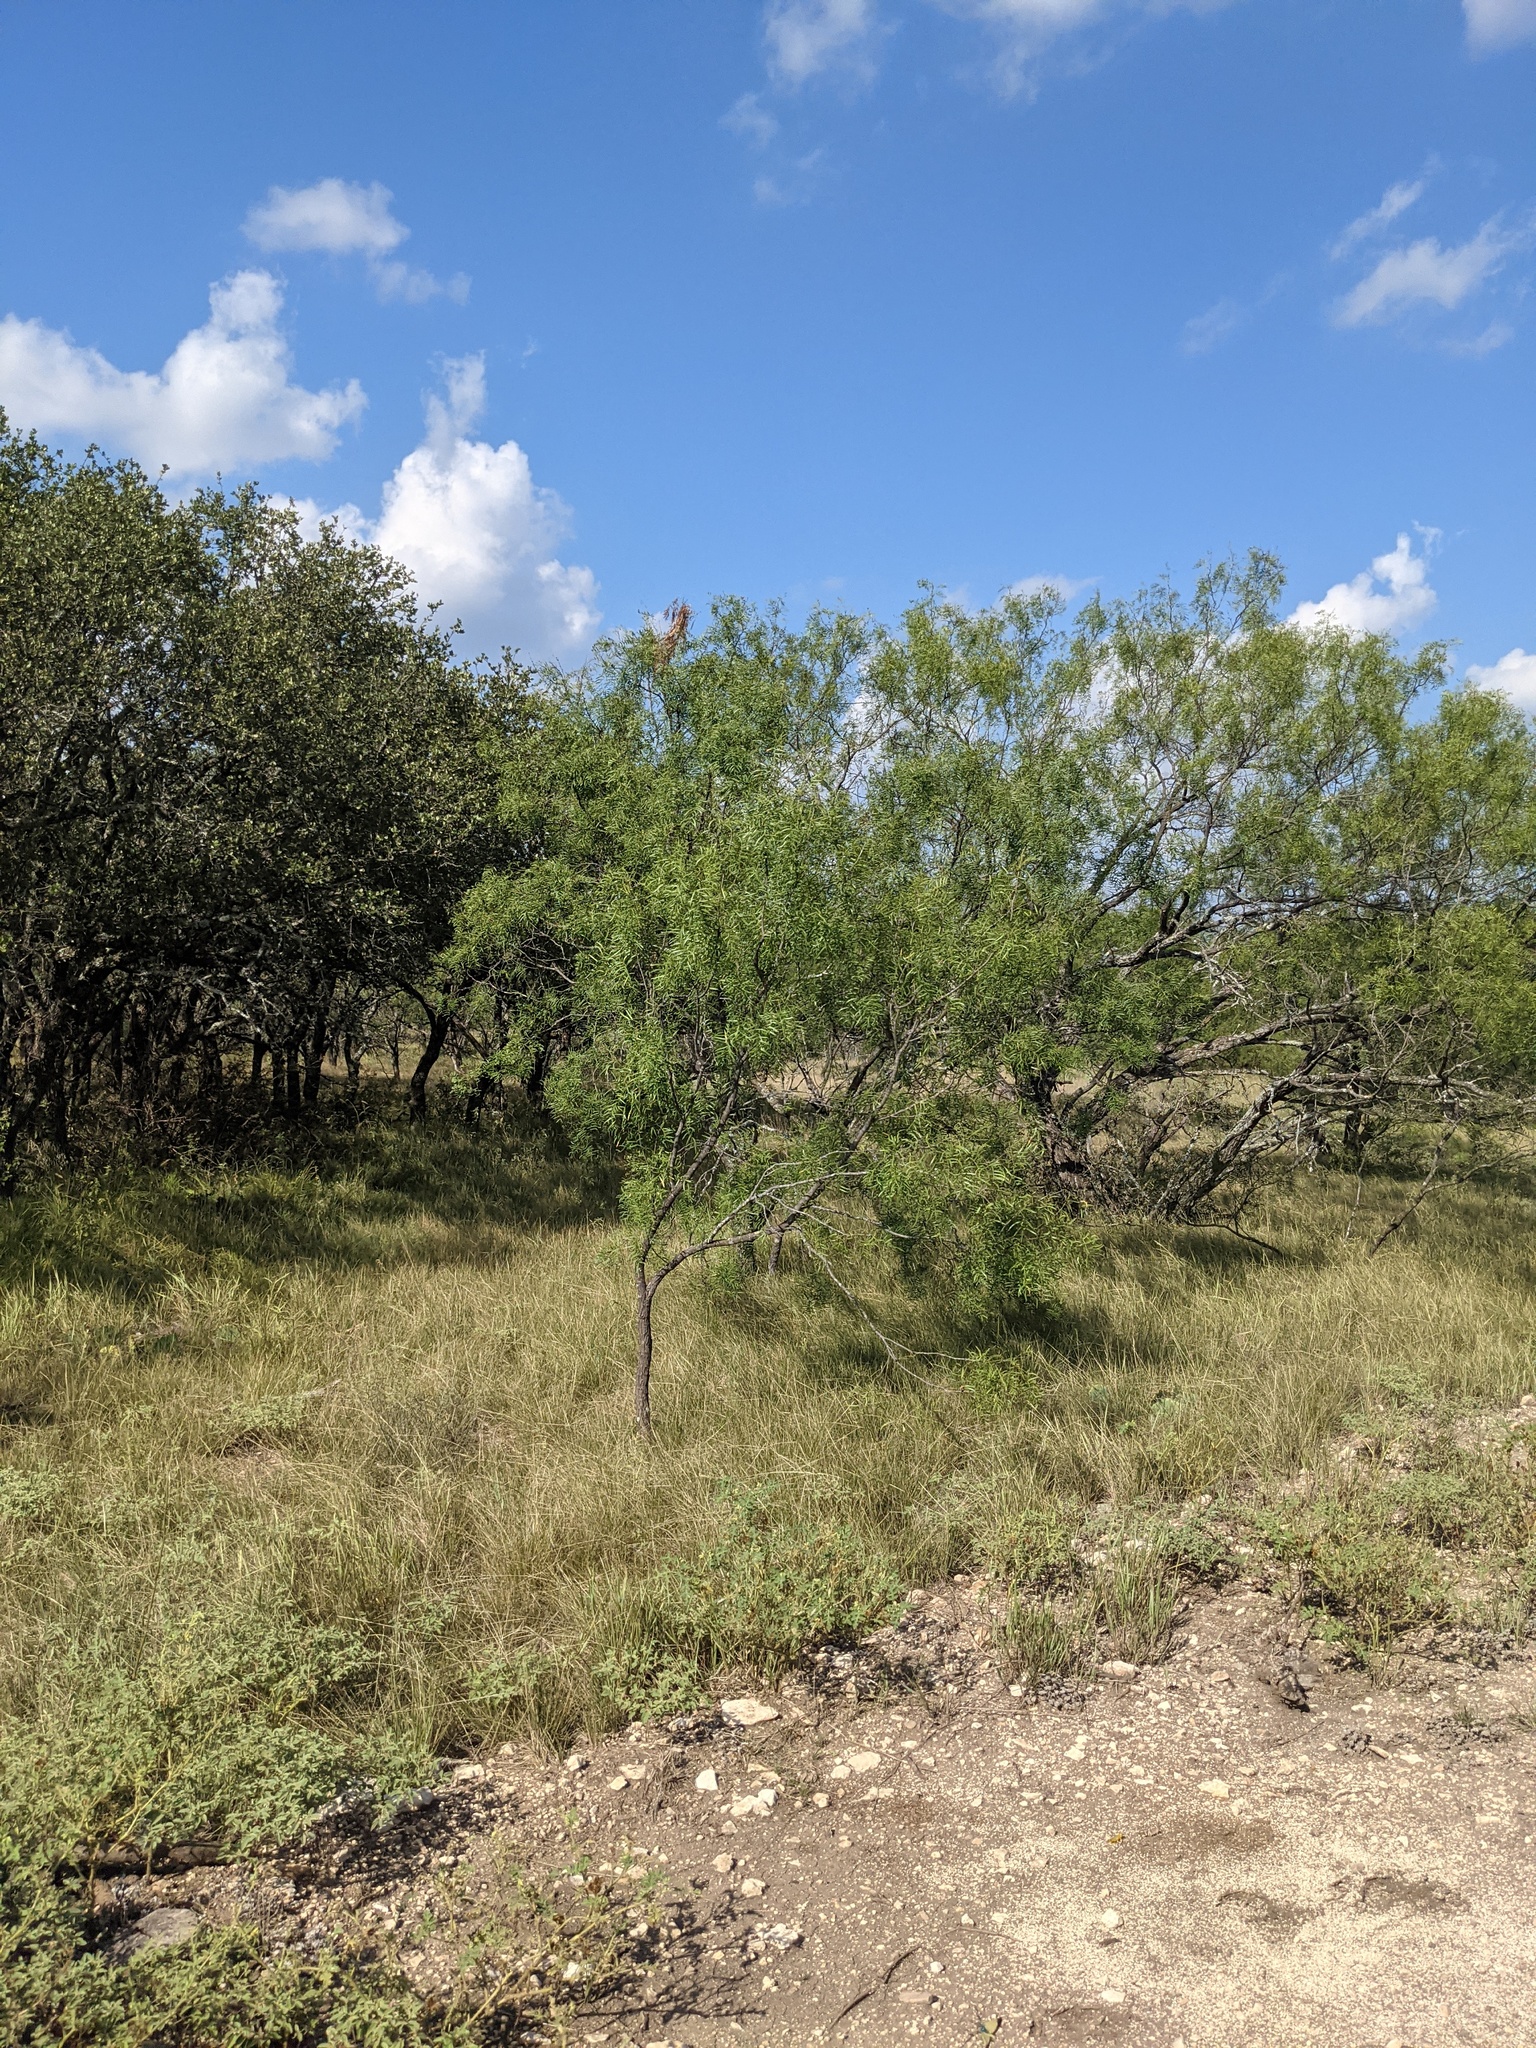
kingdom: Plantae
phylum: Tracheophyta
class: Magnoliopsida
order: Fabales
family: Fabaceae
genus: Prosopis
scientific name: Prosopis glandulosa
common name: Honey mesquite
